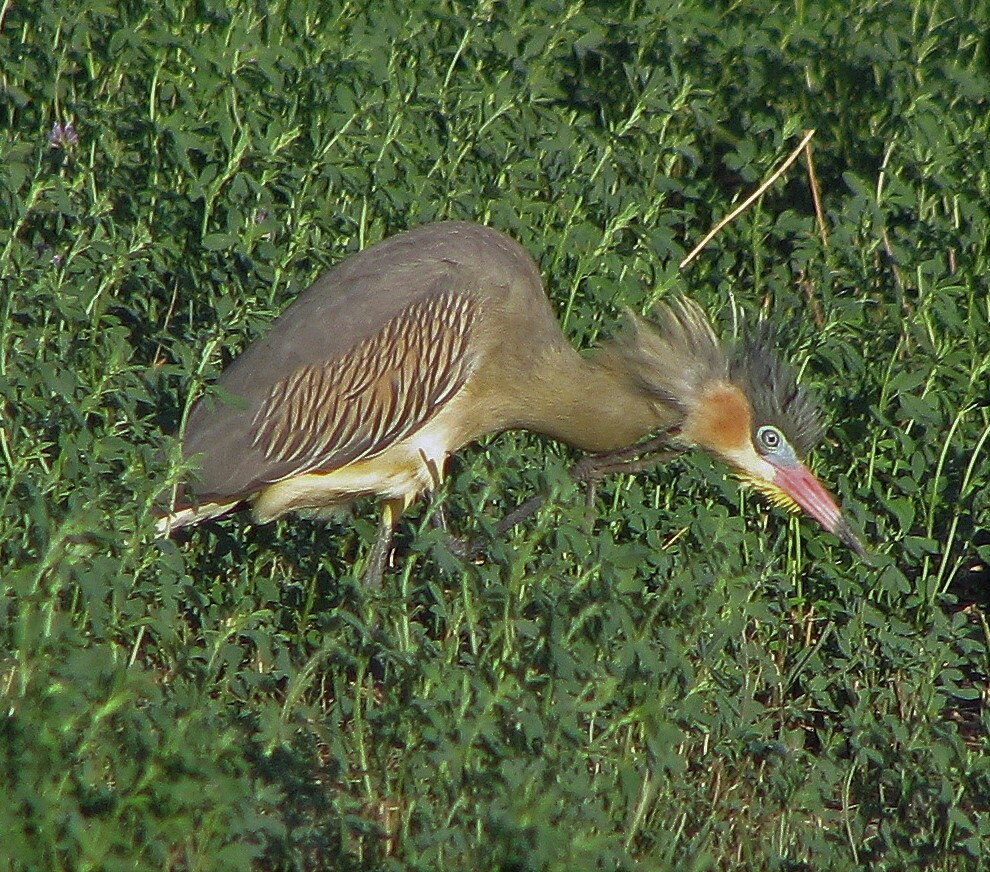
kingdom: Animalia
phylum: Chordata
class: Aves
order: Pelecaniformes
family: Ardeidae
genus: Syrigma
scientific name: Syrigma sibilatrix
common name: Whistling heron
